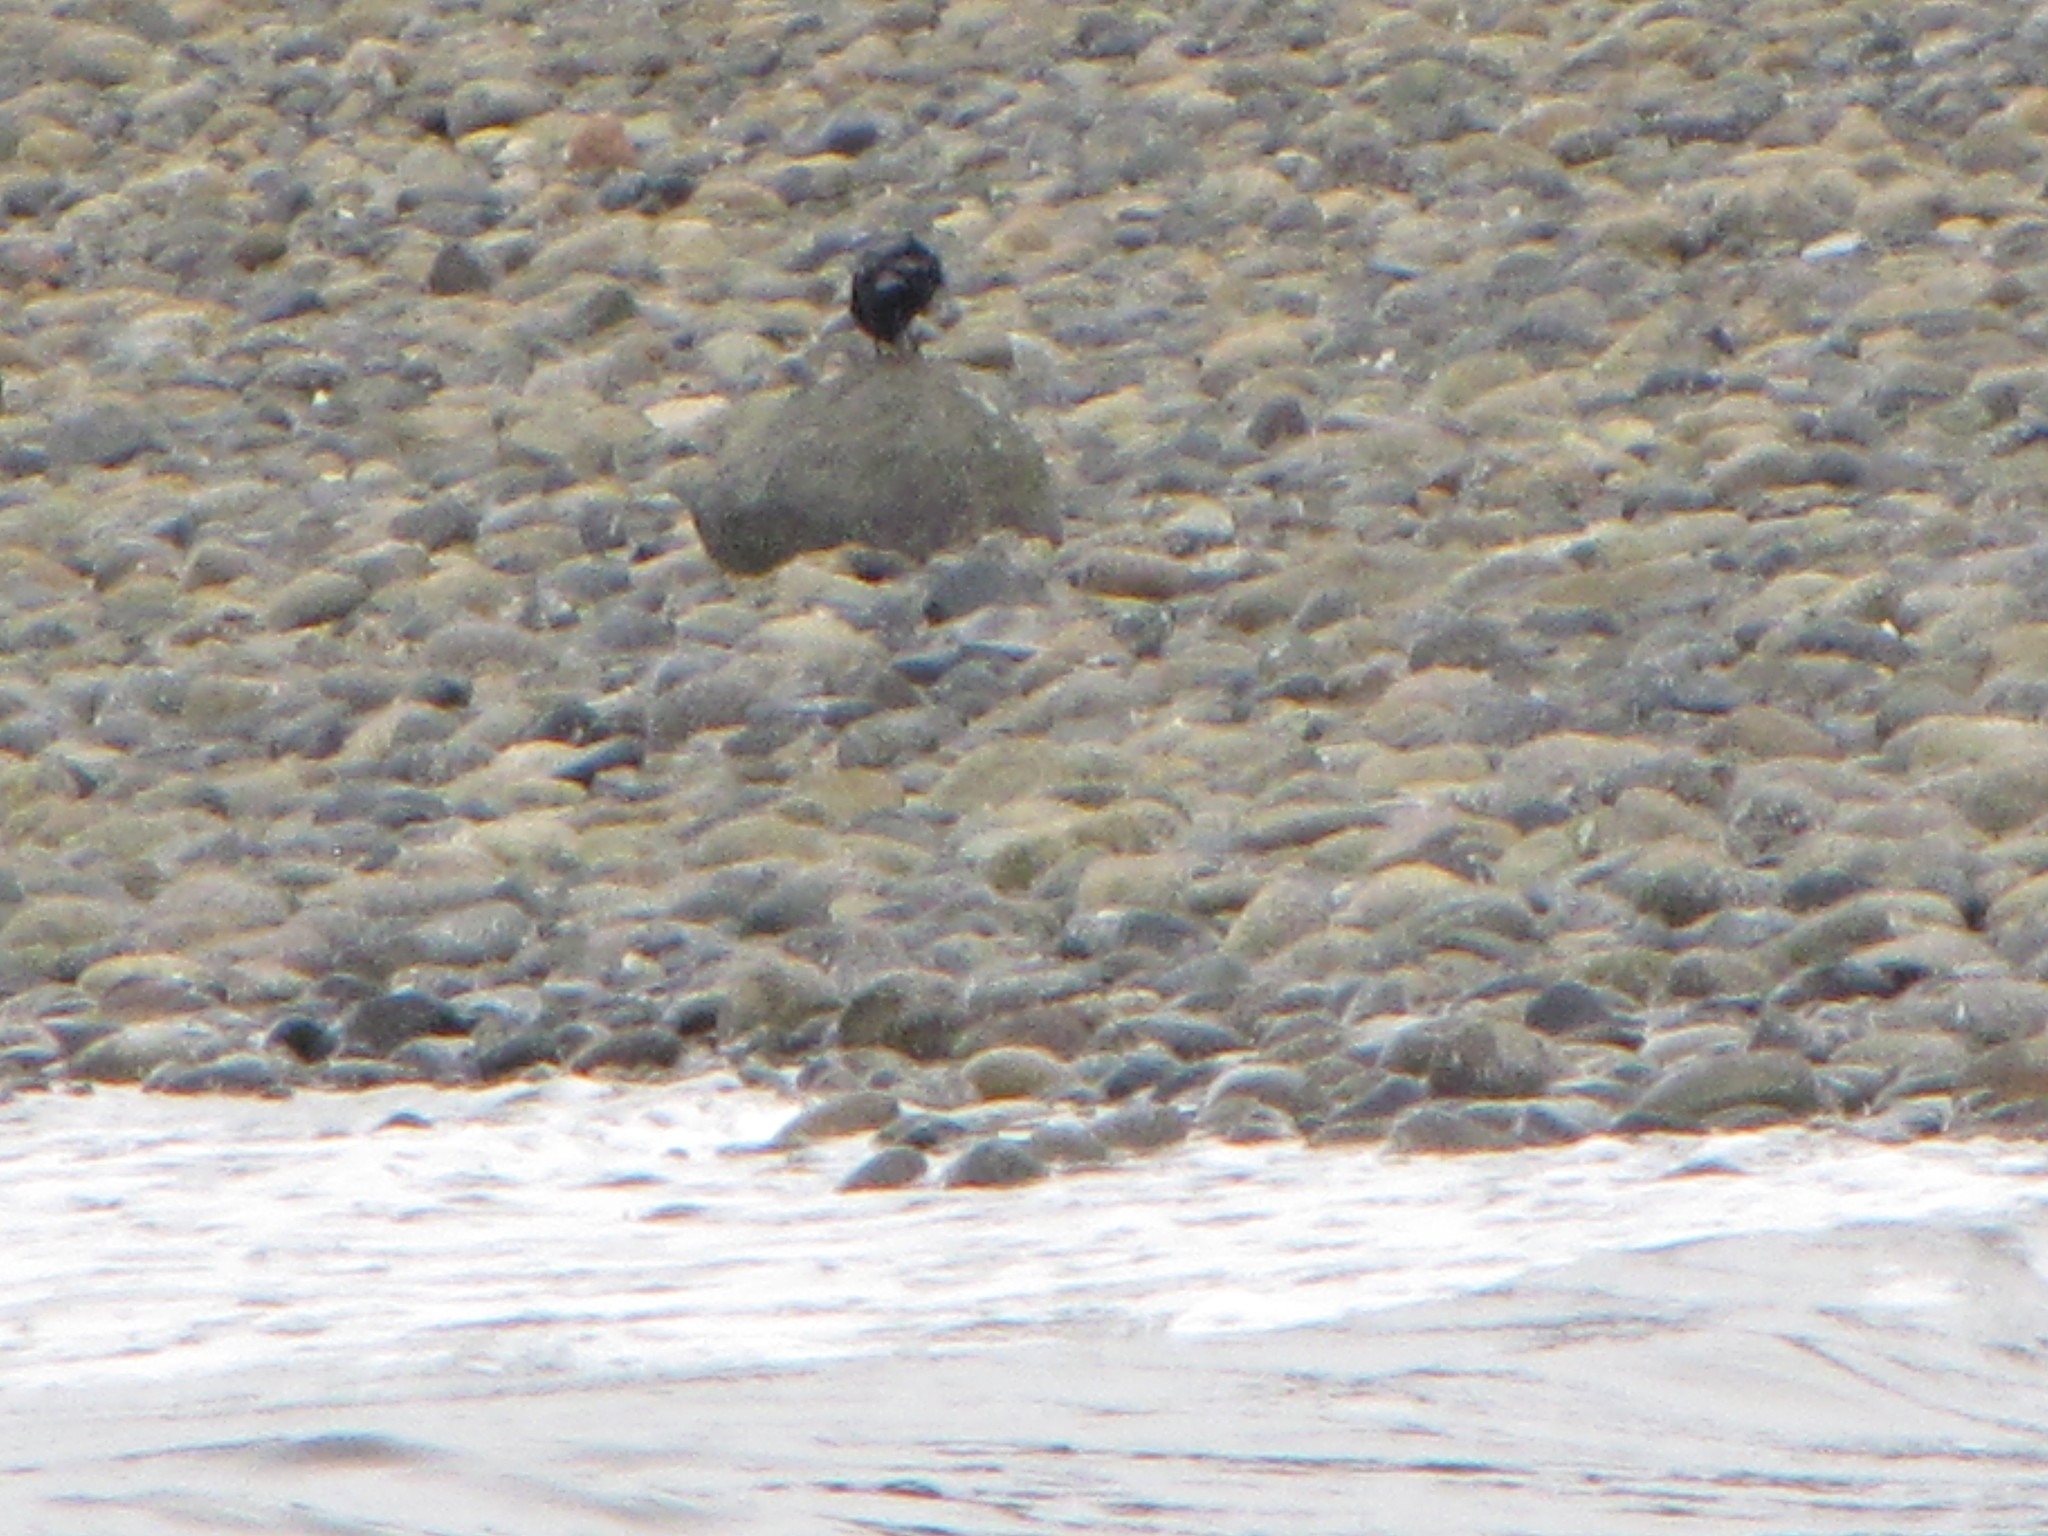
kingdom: Animalia
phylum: Chordata
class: Aves
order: Passeriformes
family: Corvidae
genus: Corvus
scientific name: Corvus brachyrhynchos
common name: American crow
